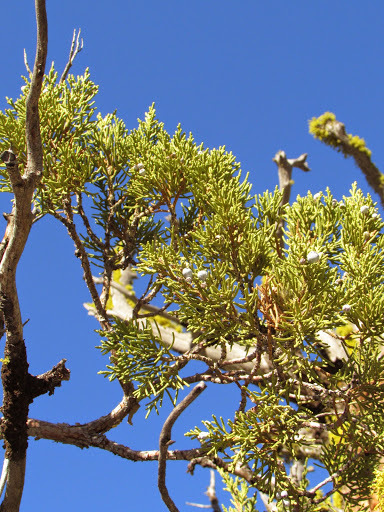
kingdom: Plantae
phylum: Tracheophyta
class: Pinopsida
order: Pinales
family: Cupressaceae
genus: Juniperus
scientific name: Juniperus occidentalis
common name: Western juniper
